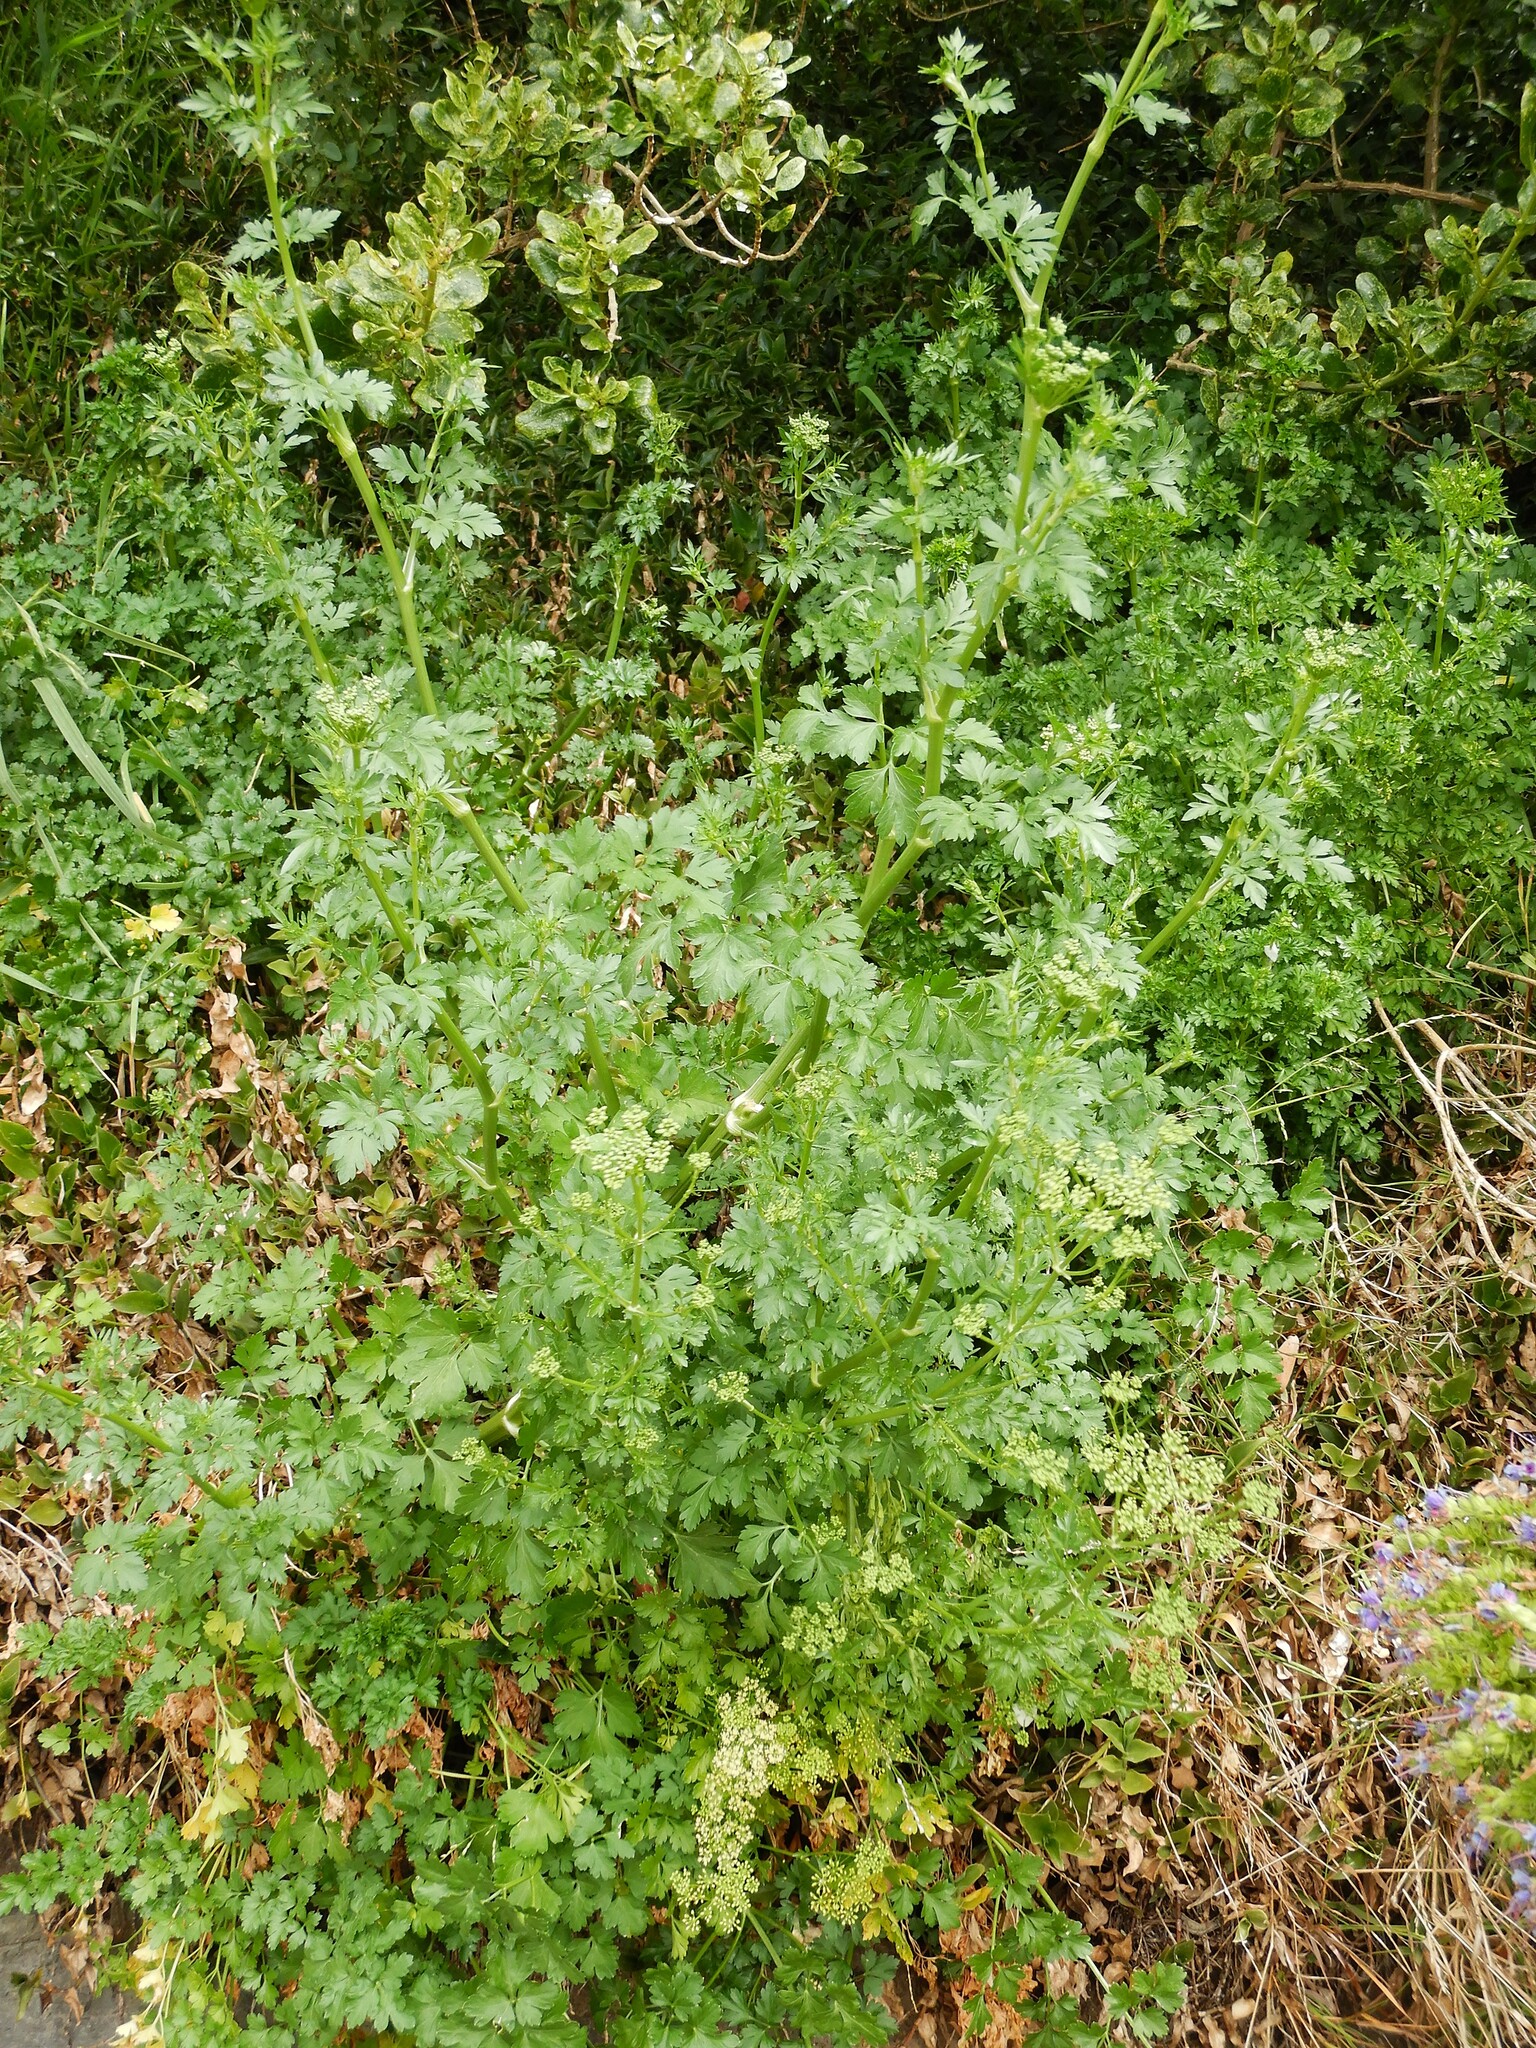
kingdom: Plantae
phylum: Tracheophyta
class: Magnoliopsida
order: Apiales
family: Apiaceae
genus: Petroselinum
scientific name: Petroselinum crispum
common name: Parsley
